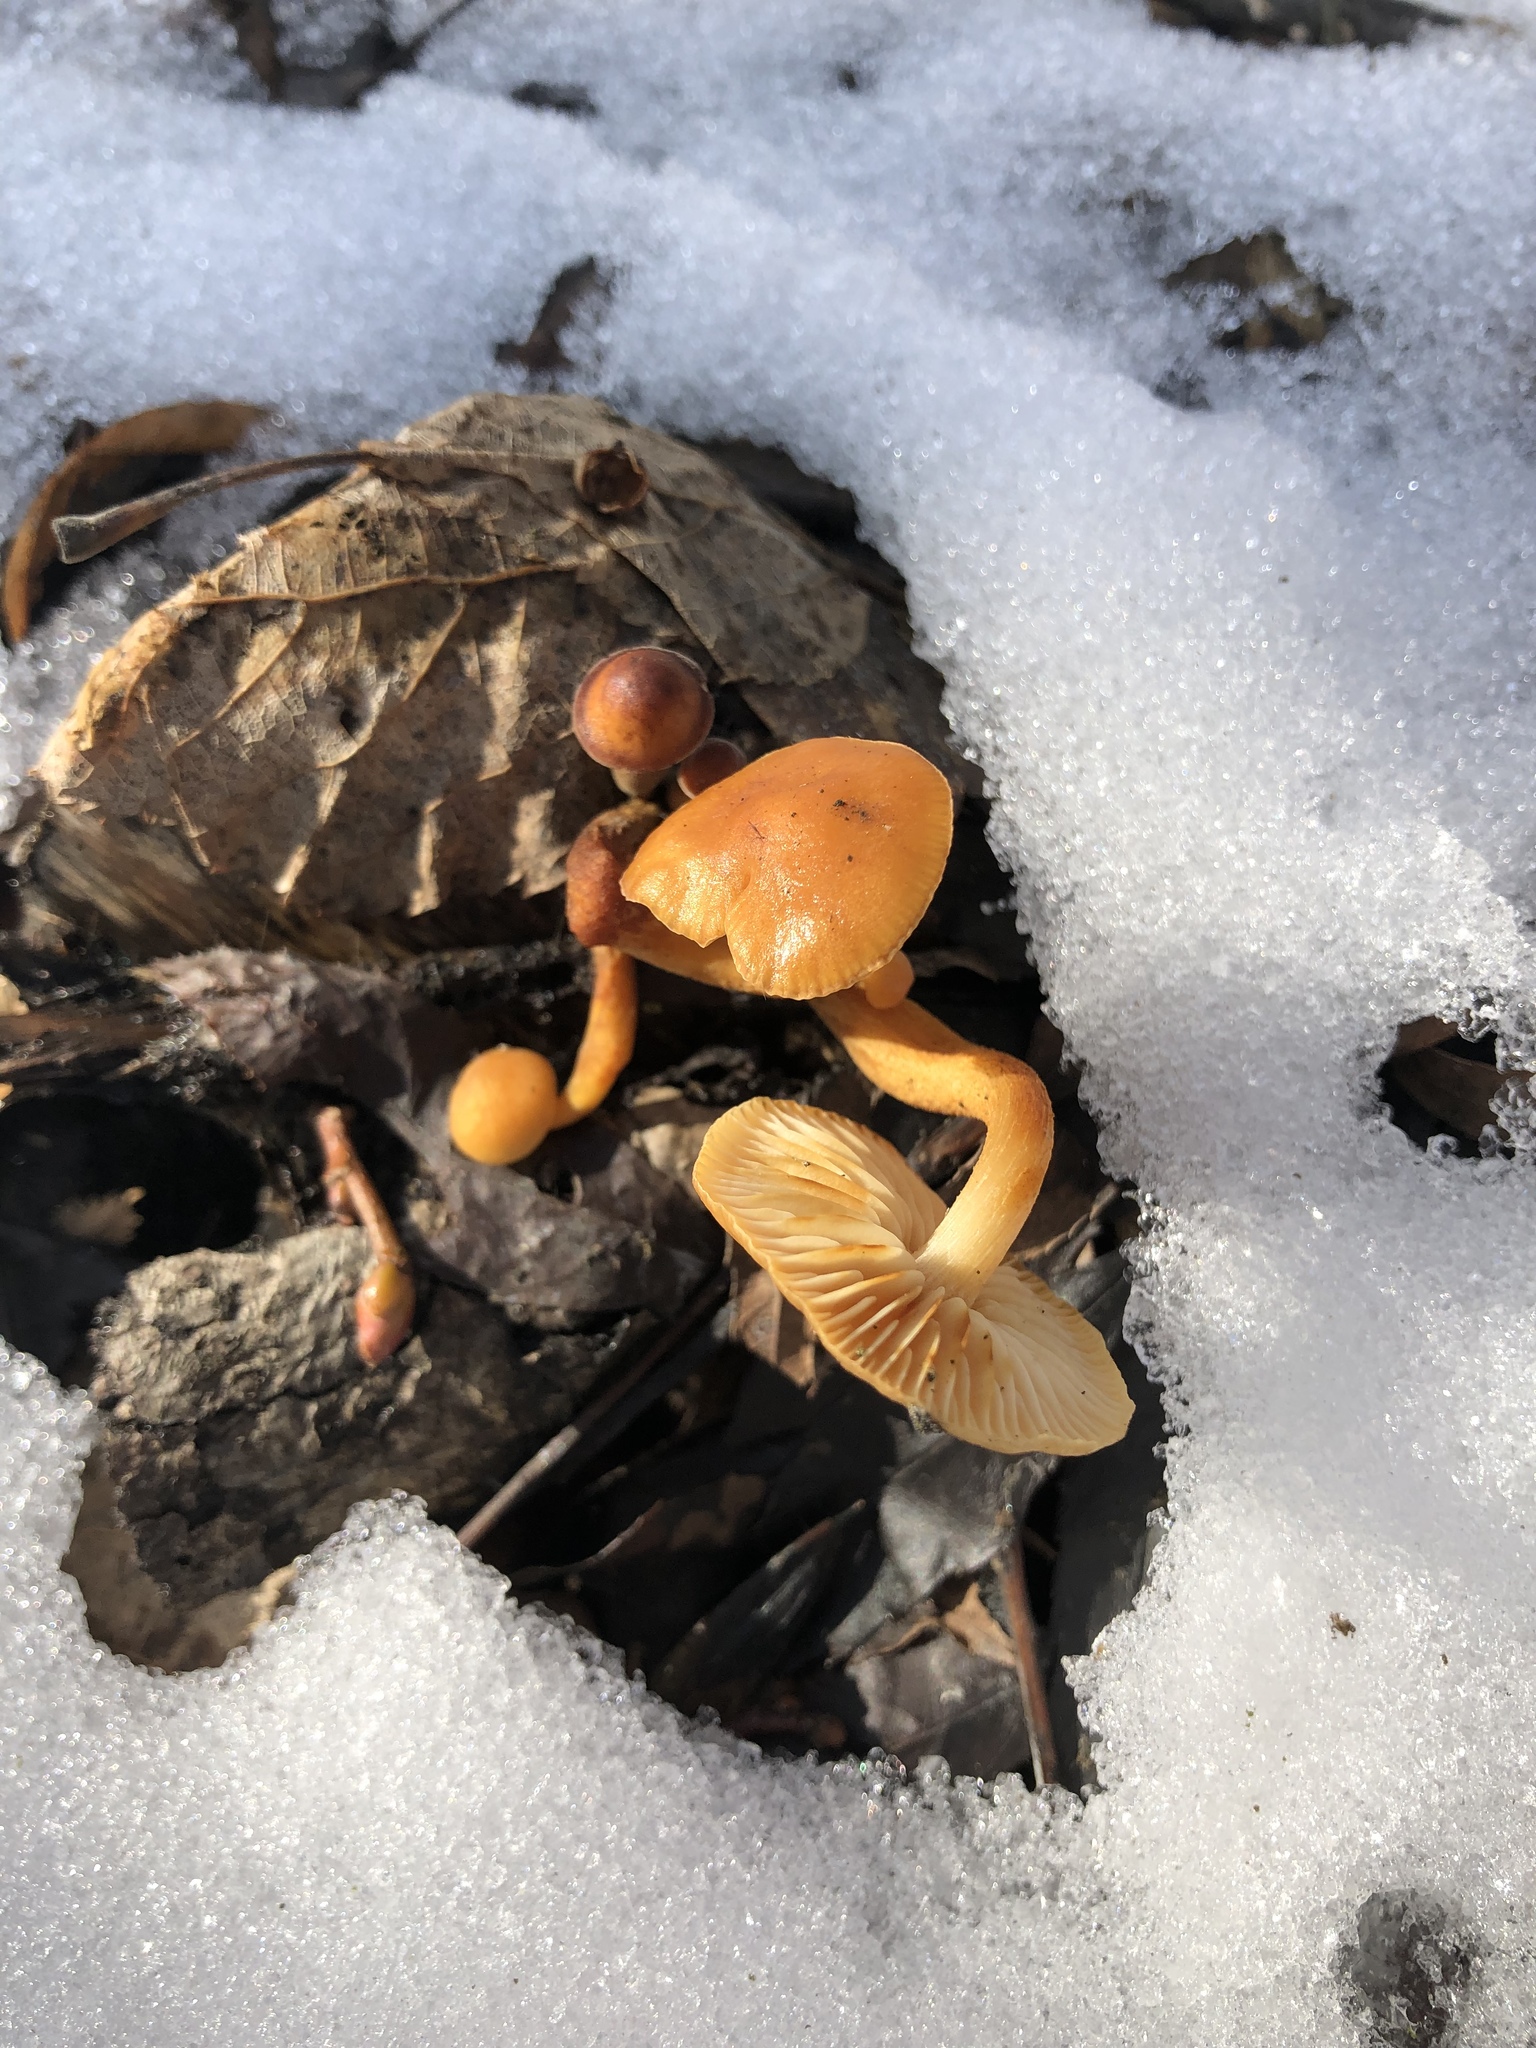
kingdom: Fungi
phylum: Basidiomycota
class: Agaricomycetes
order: Agaricales
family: Physalacriaceae
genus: Flammulina
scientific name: Flammulina
